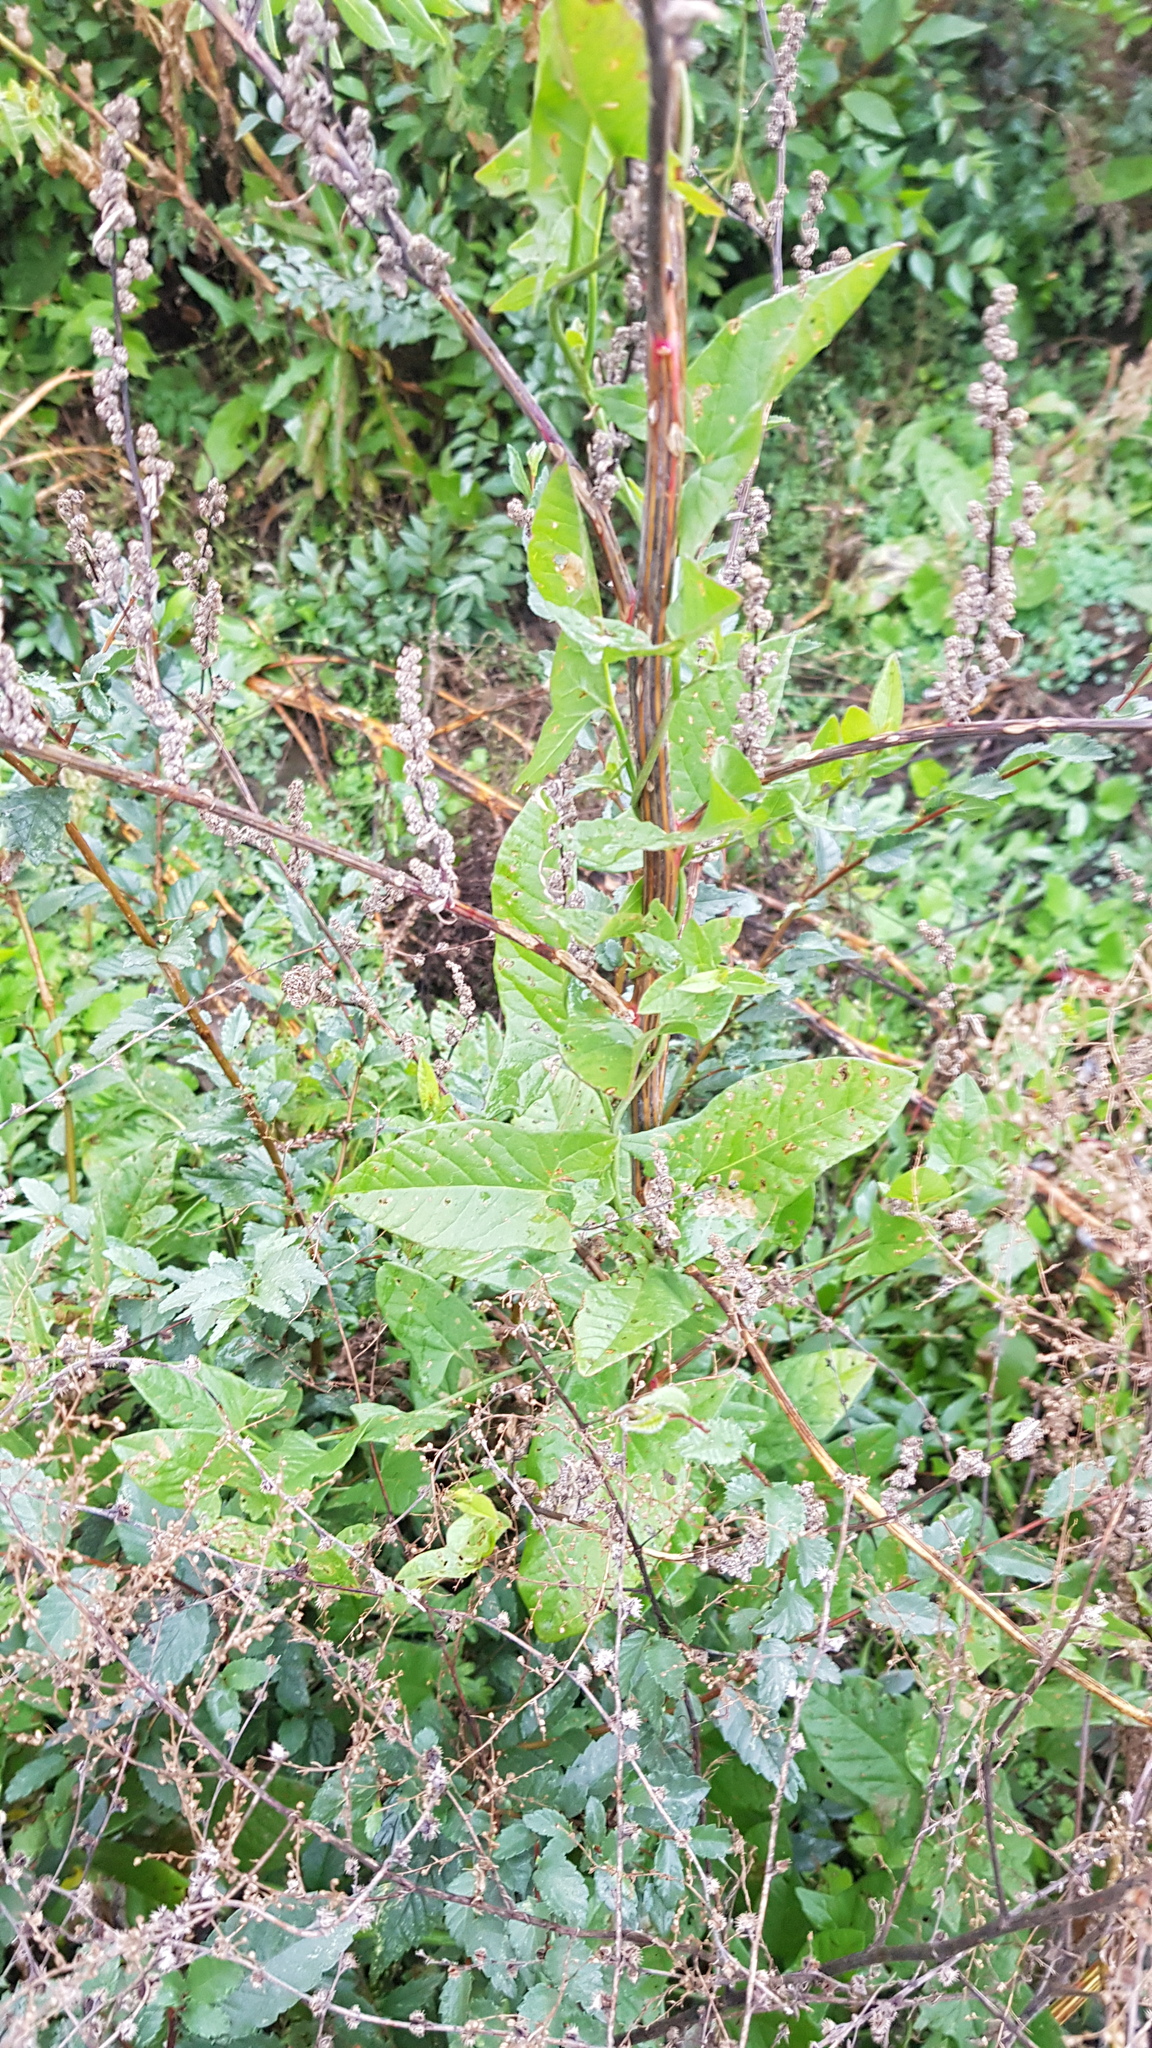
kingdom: Plantae
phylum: Tracheophyta
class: Magnoliopsida
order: Caryophyllales
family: Polygonaceae
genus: Fallopia
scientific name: Fallopia convolvulus
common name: Black bindweed
